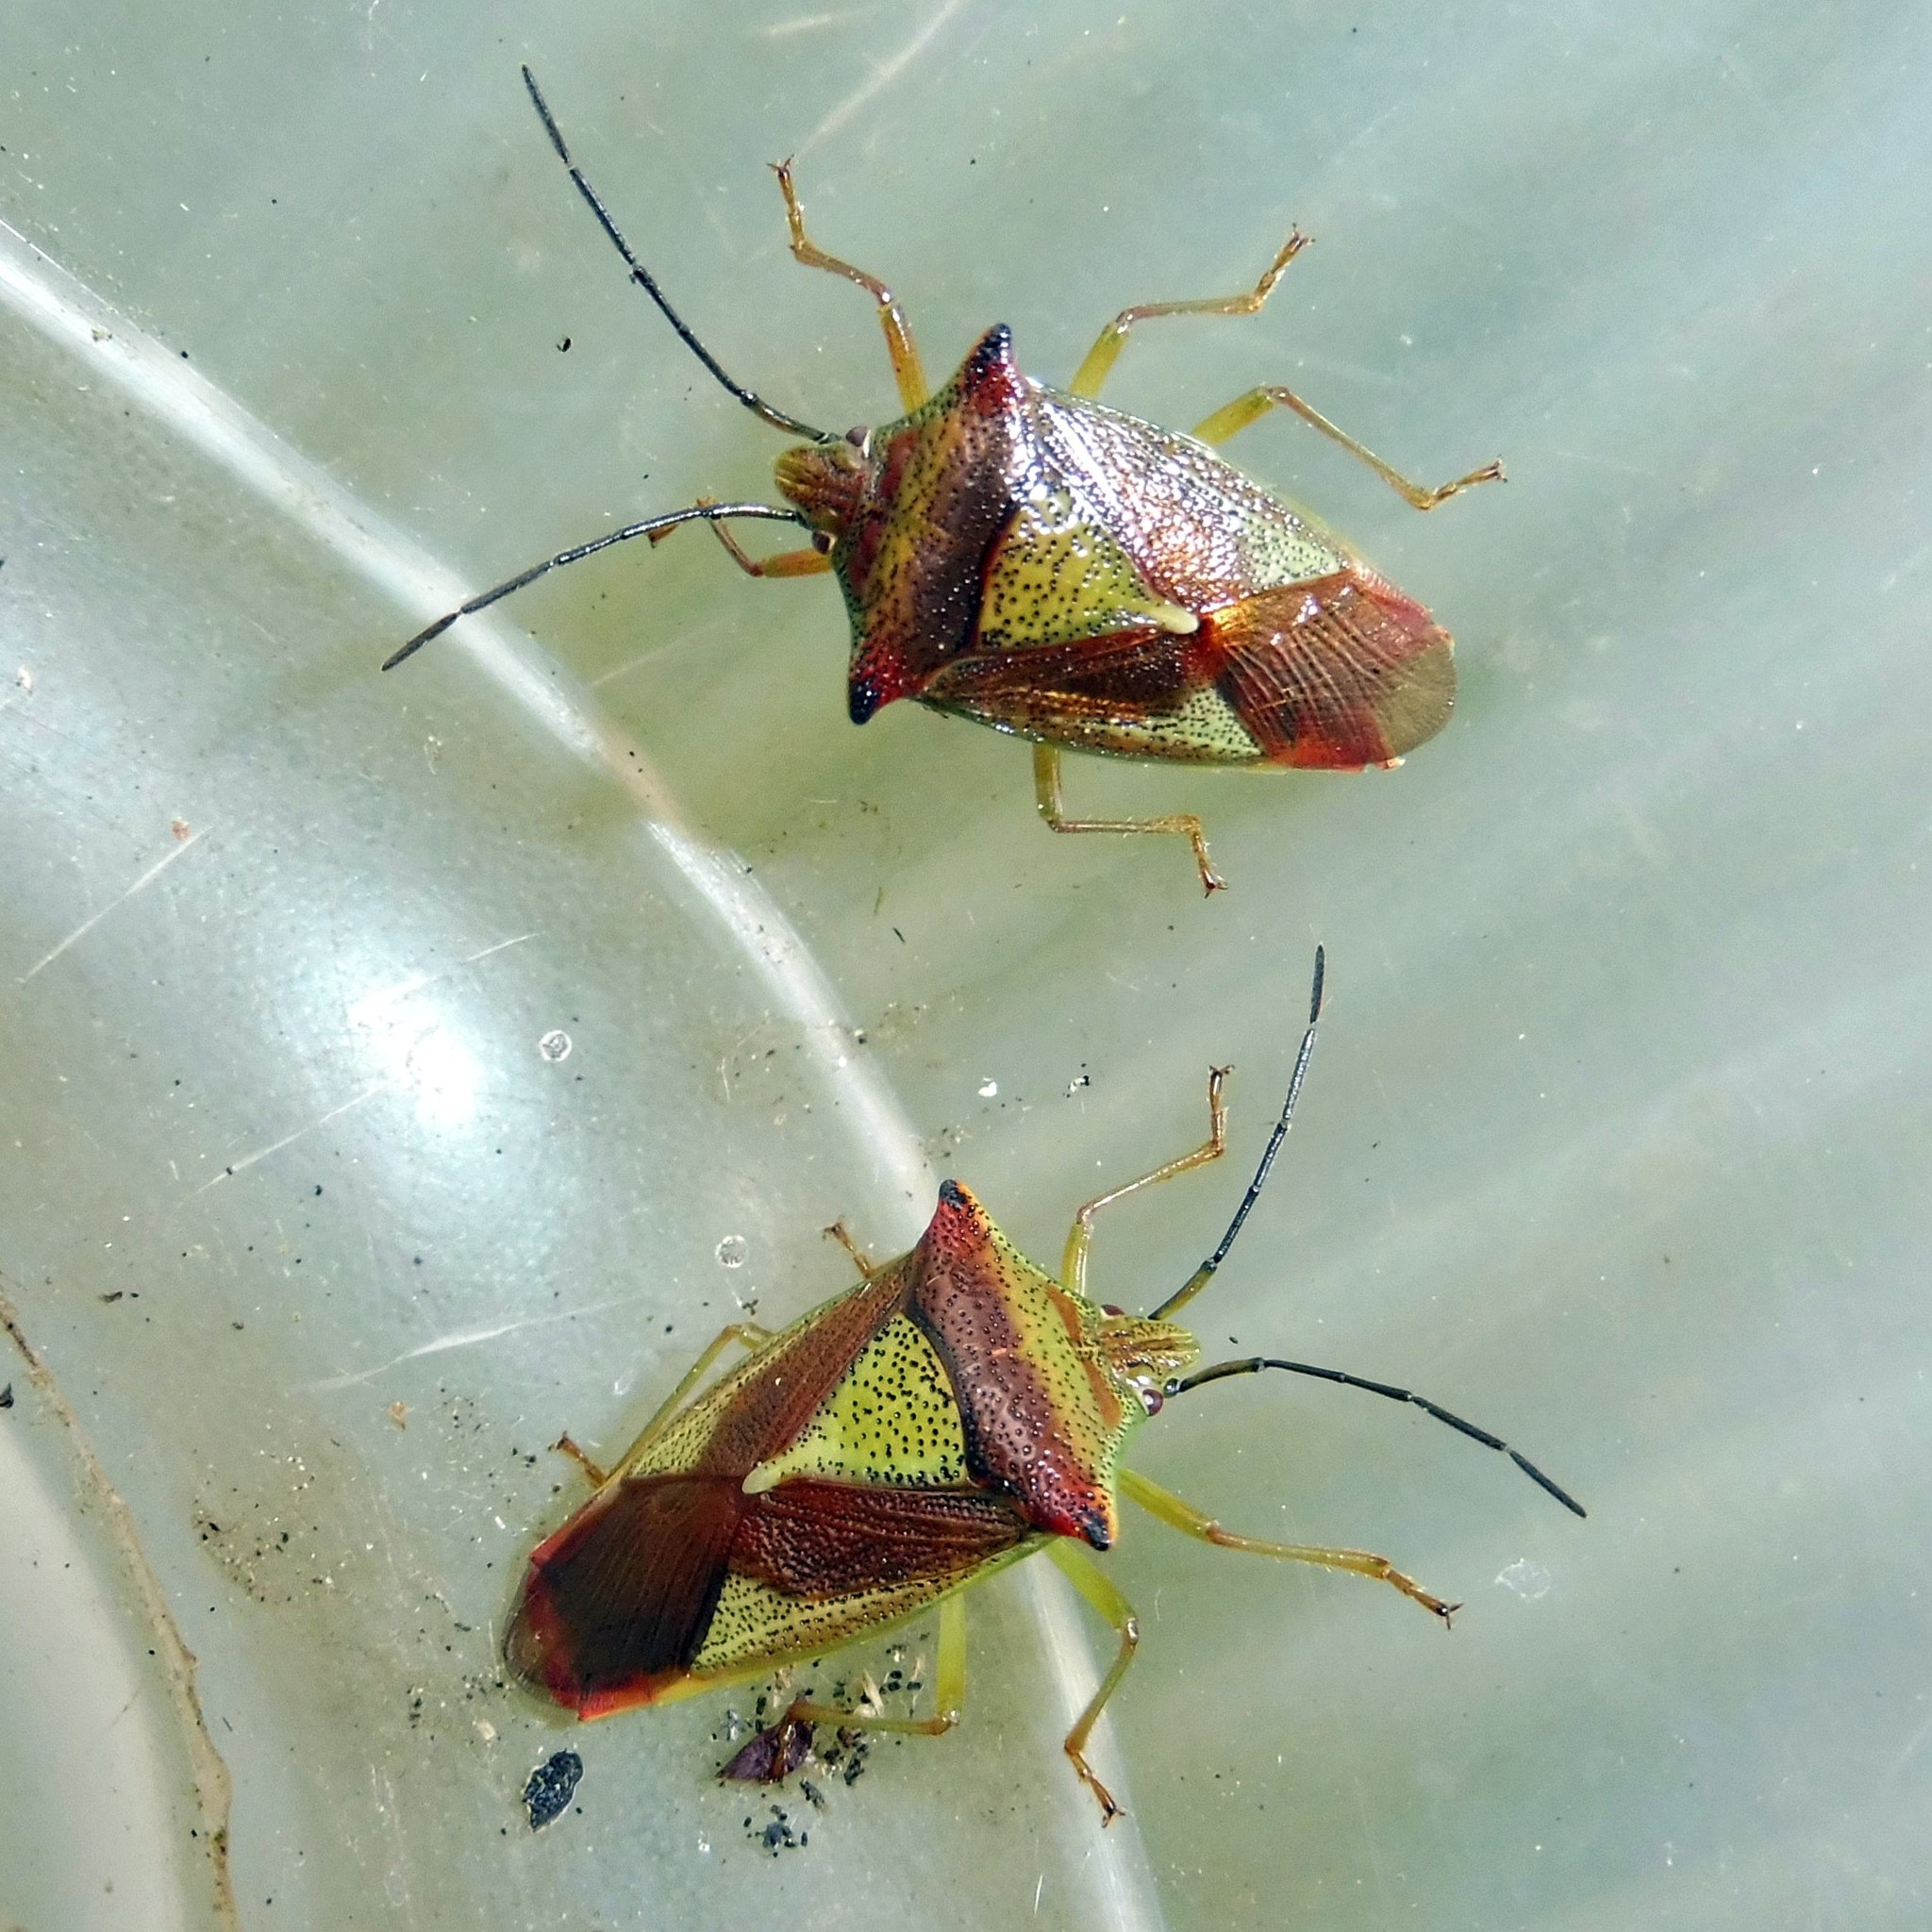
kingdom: Animalia
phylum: Arthropoda
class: Insecta
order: Hemiptera
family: Acanthosomatidae
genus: Acanthosoma
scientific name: Acanthosoma haemorrhoidale
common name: Hawthorn shieldbug
